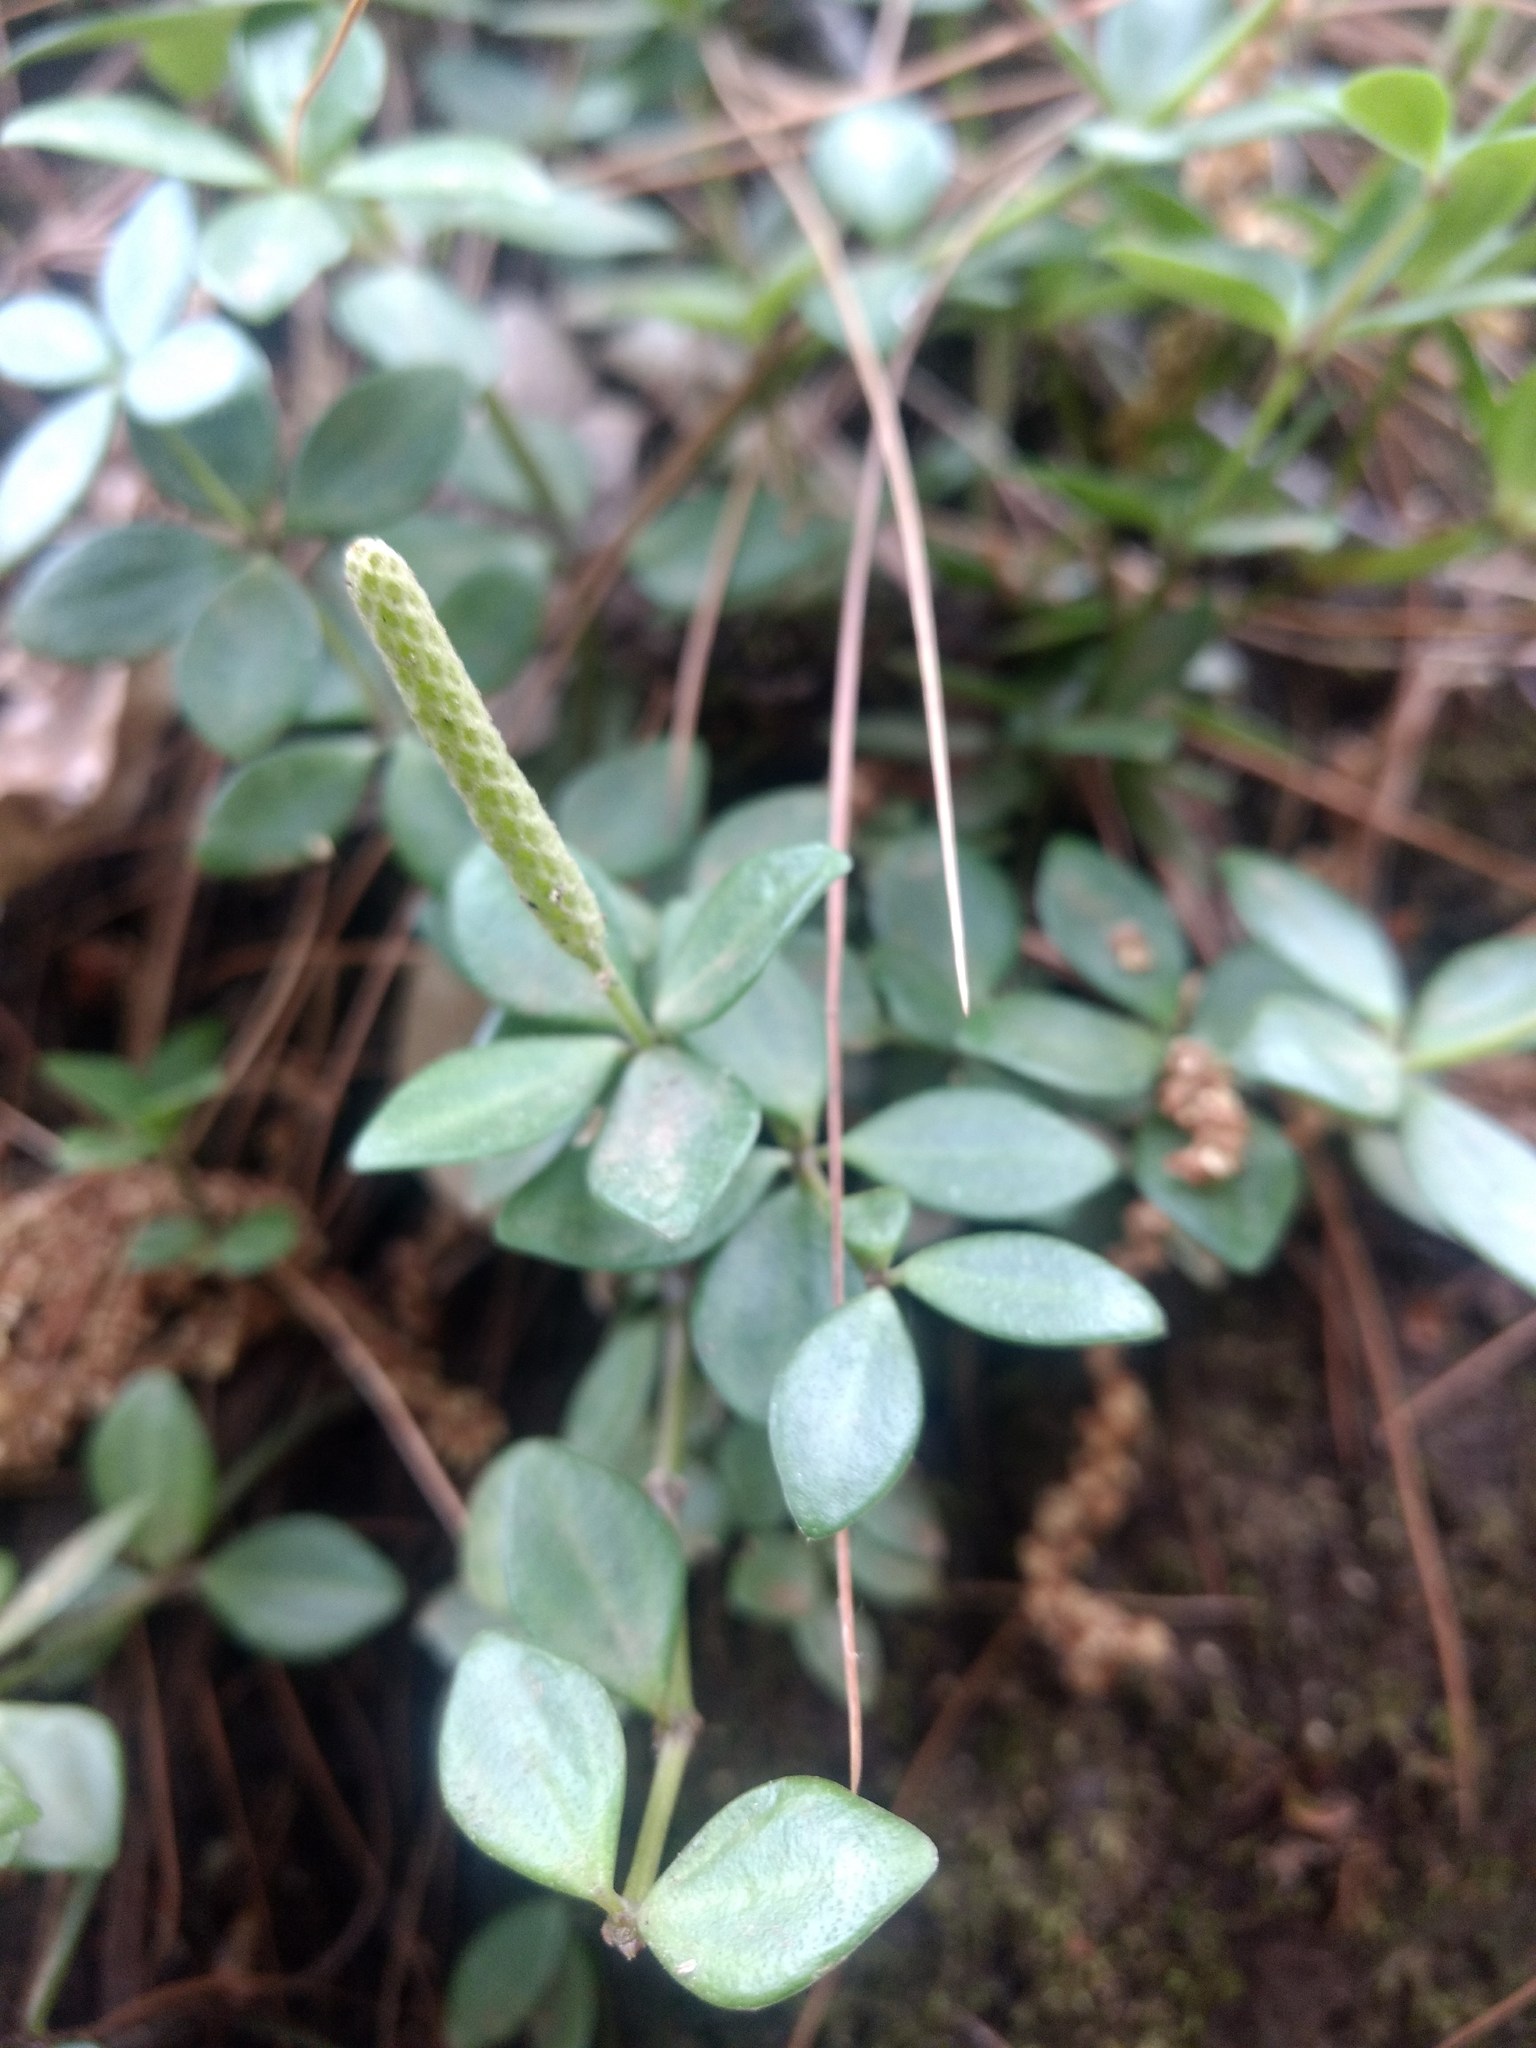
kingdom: Plantae
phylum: Tracheophyta
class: Magnoliopsida
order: Piperales
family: Piperaceae
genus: Peperomia
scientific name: Peperomia tetraphylla
